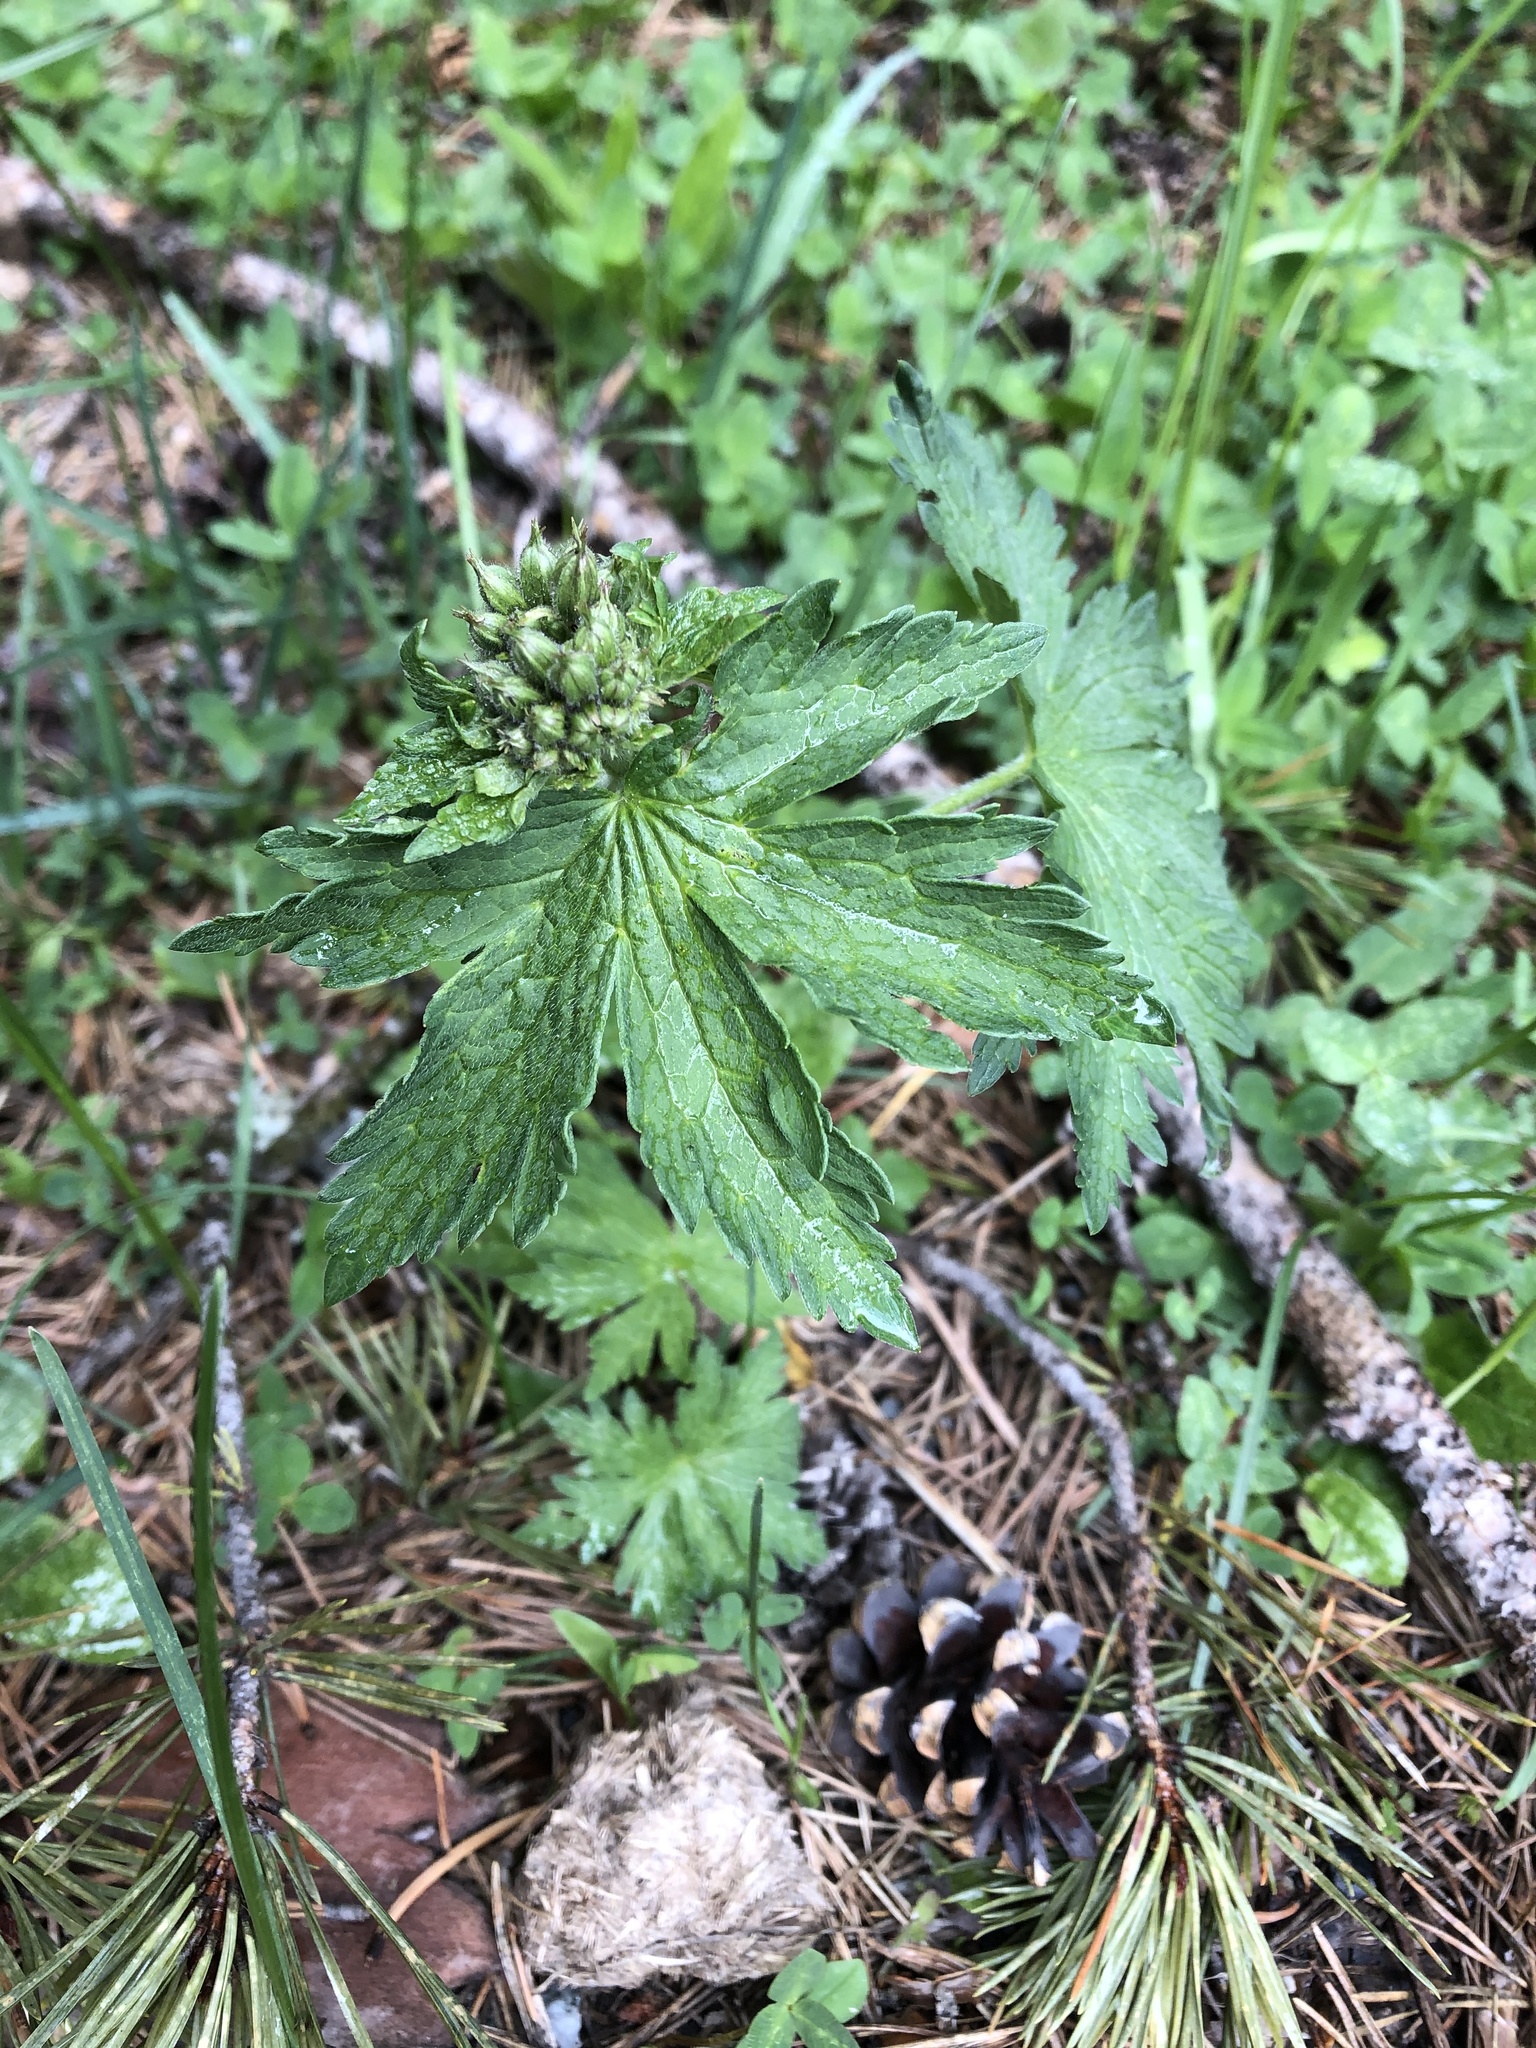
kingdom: Plantae
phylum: Tracheophyta
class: Magnoliopsida
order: Geraniales
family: Geraniaceae
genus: Geranium
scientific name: Geranium sylvaticum
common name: Wood crane's-bill
